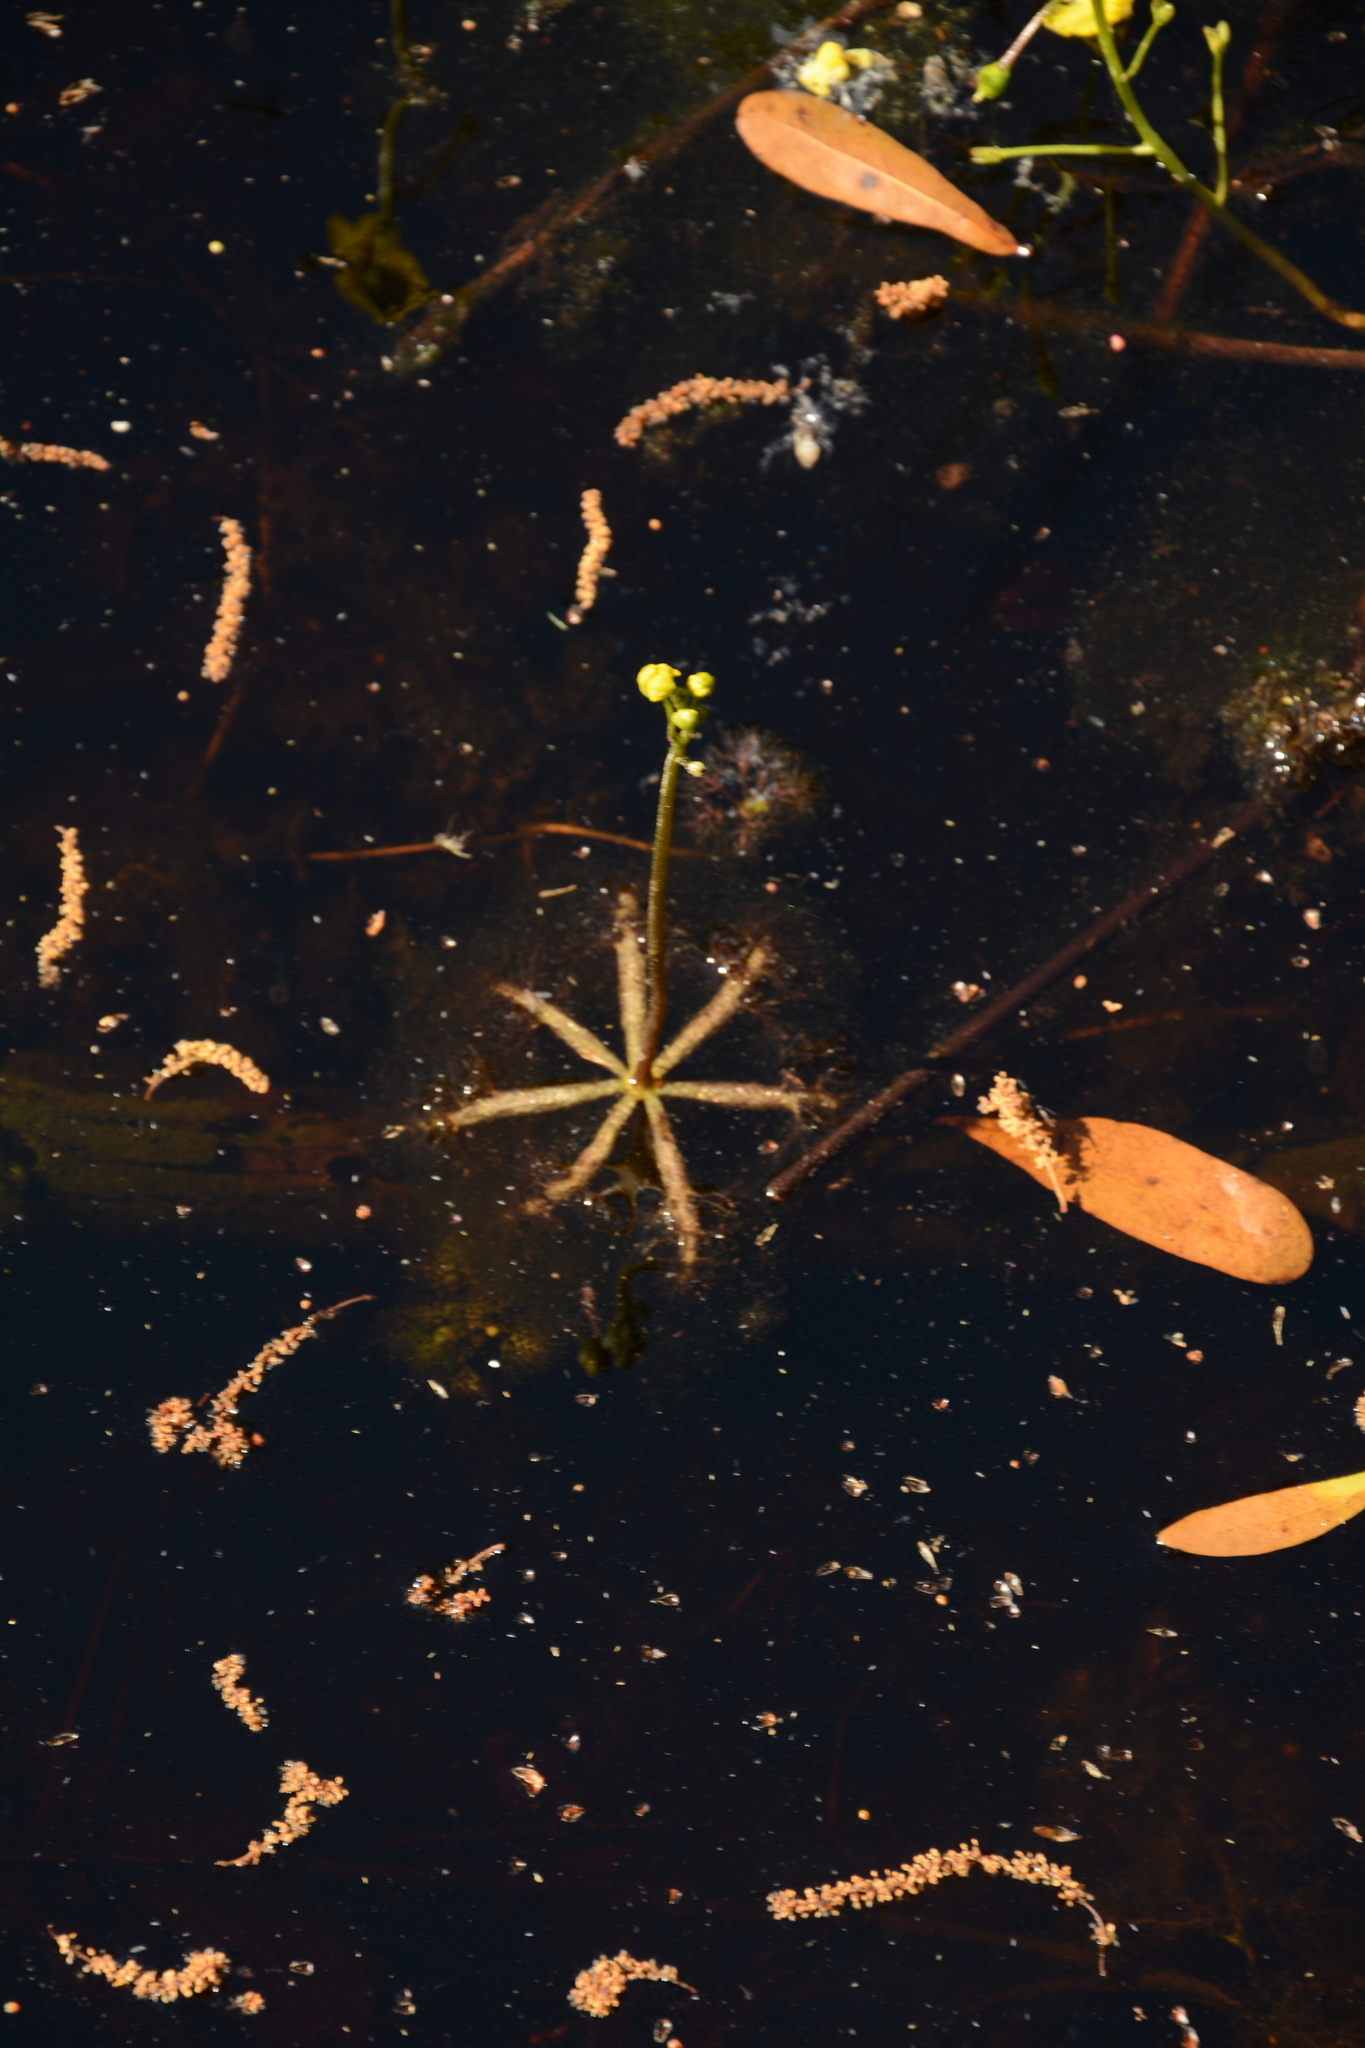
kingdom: Plantae
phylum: Tracheophyta
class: Magnoliopsida
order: Lamiales
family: Lentibulariaceae
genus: Utricularia
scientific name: Utricularia inflata
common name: Floating bladderwort
